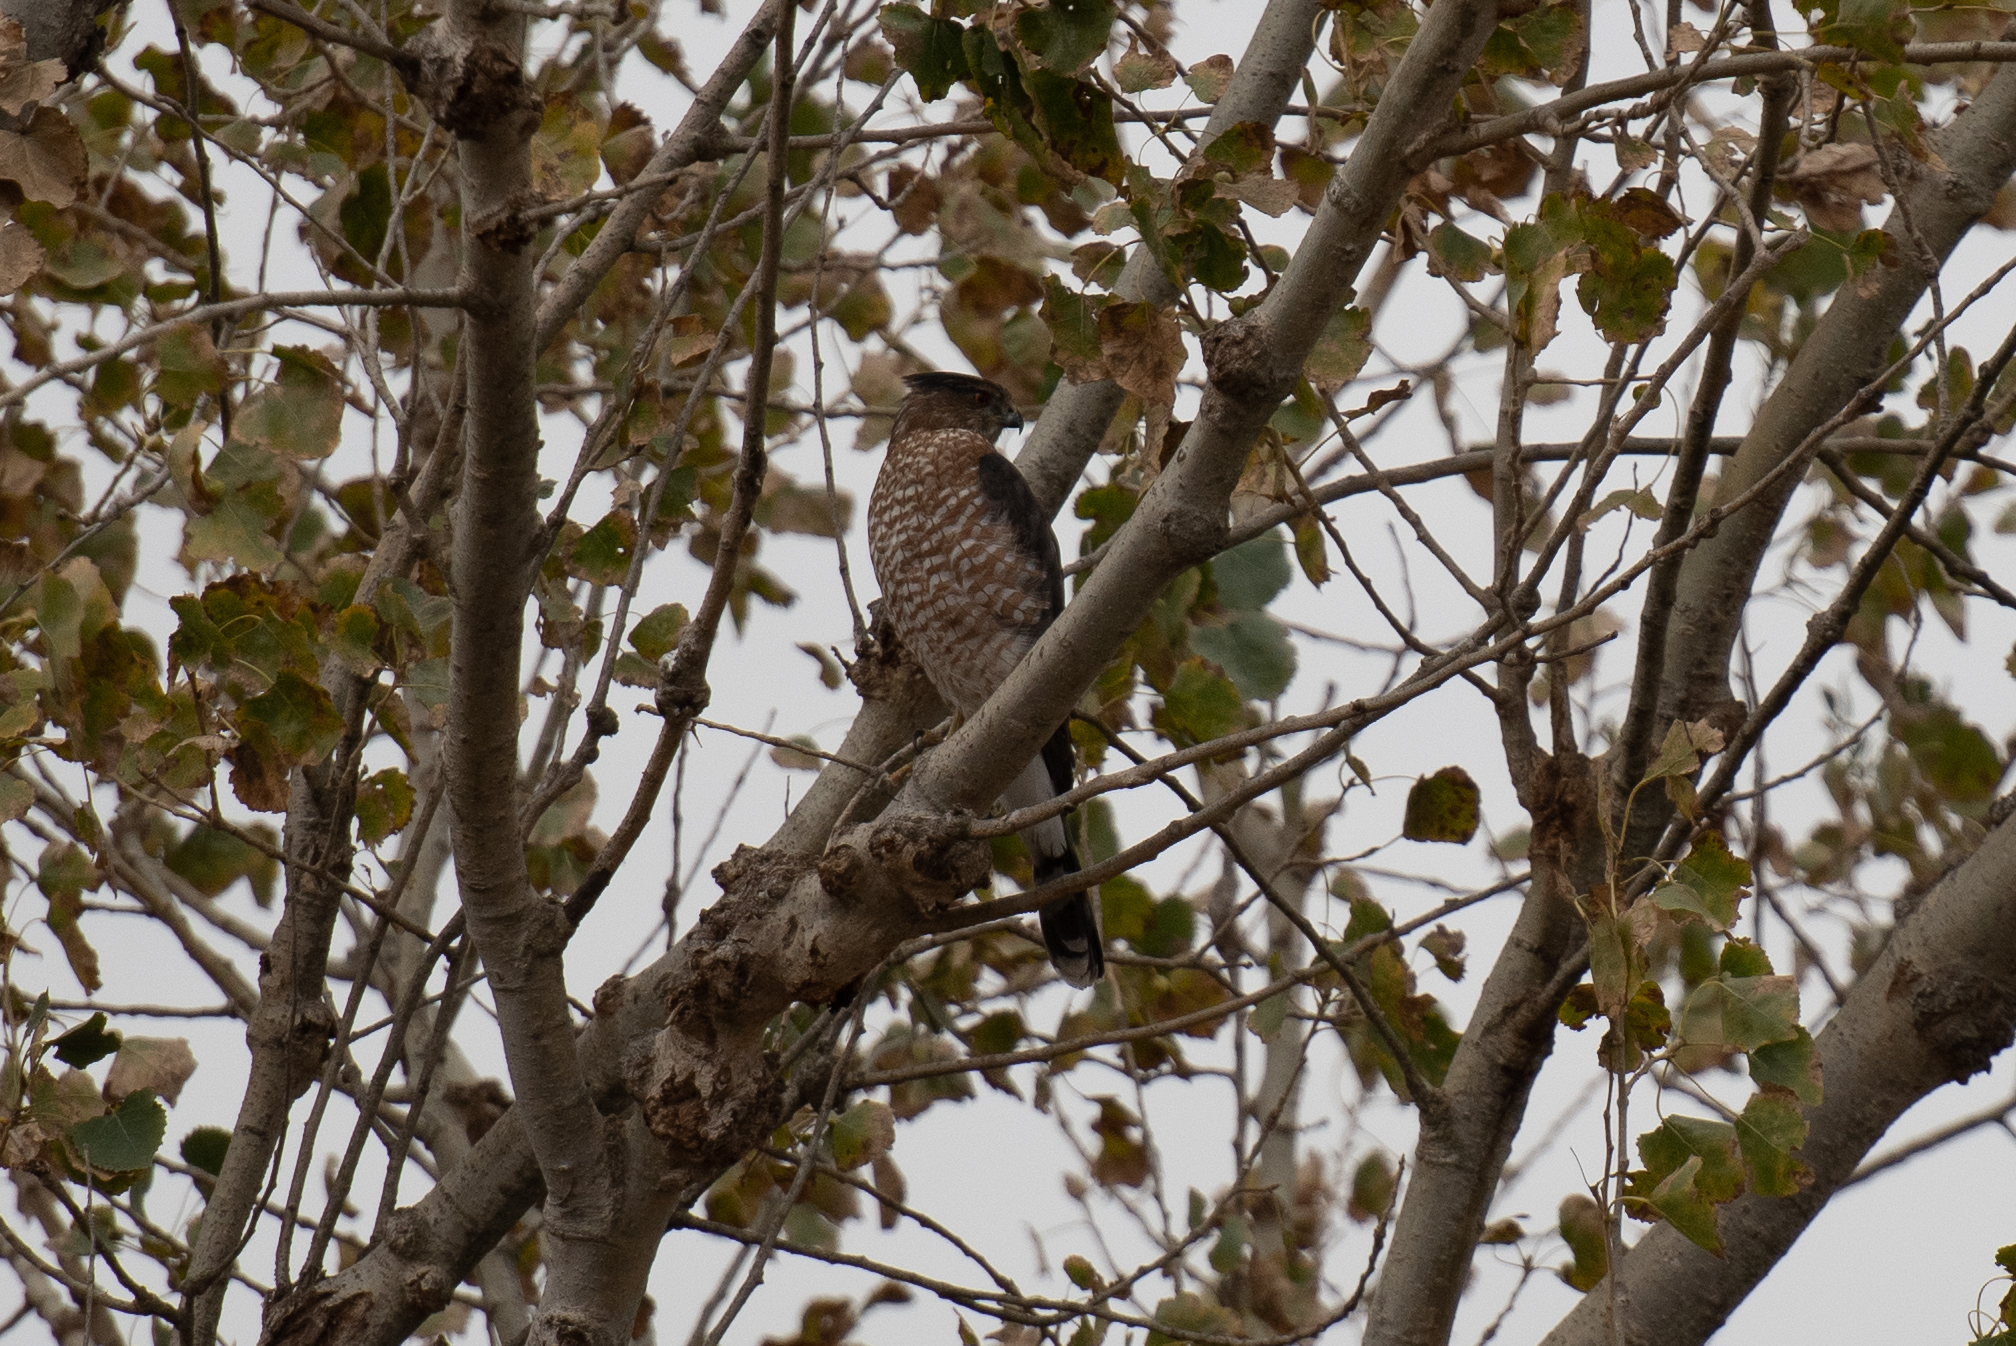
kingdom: Animalia
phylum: Chordata
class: Aves
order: Accipitriformes
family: Accipitridae
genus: Accipiter
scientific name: Accipiter cooperii
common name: Cooper's hawk
